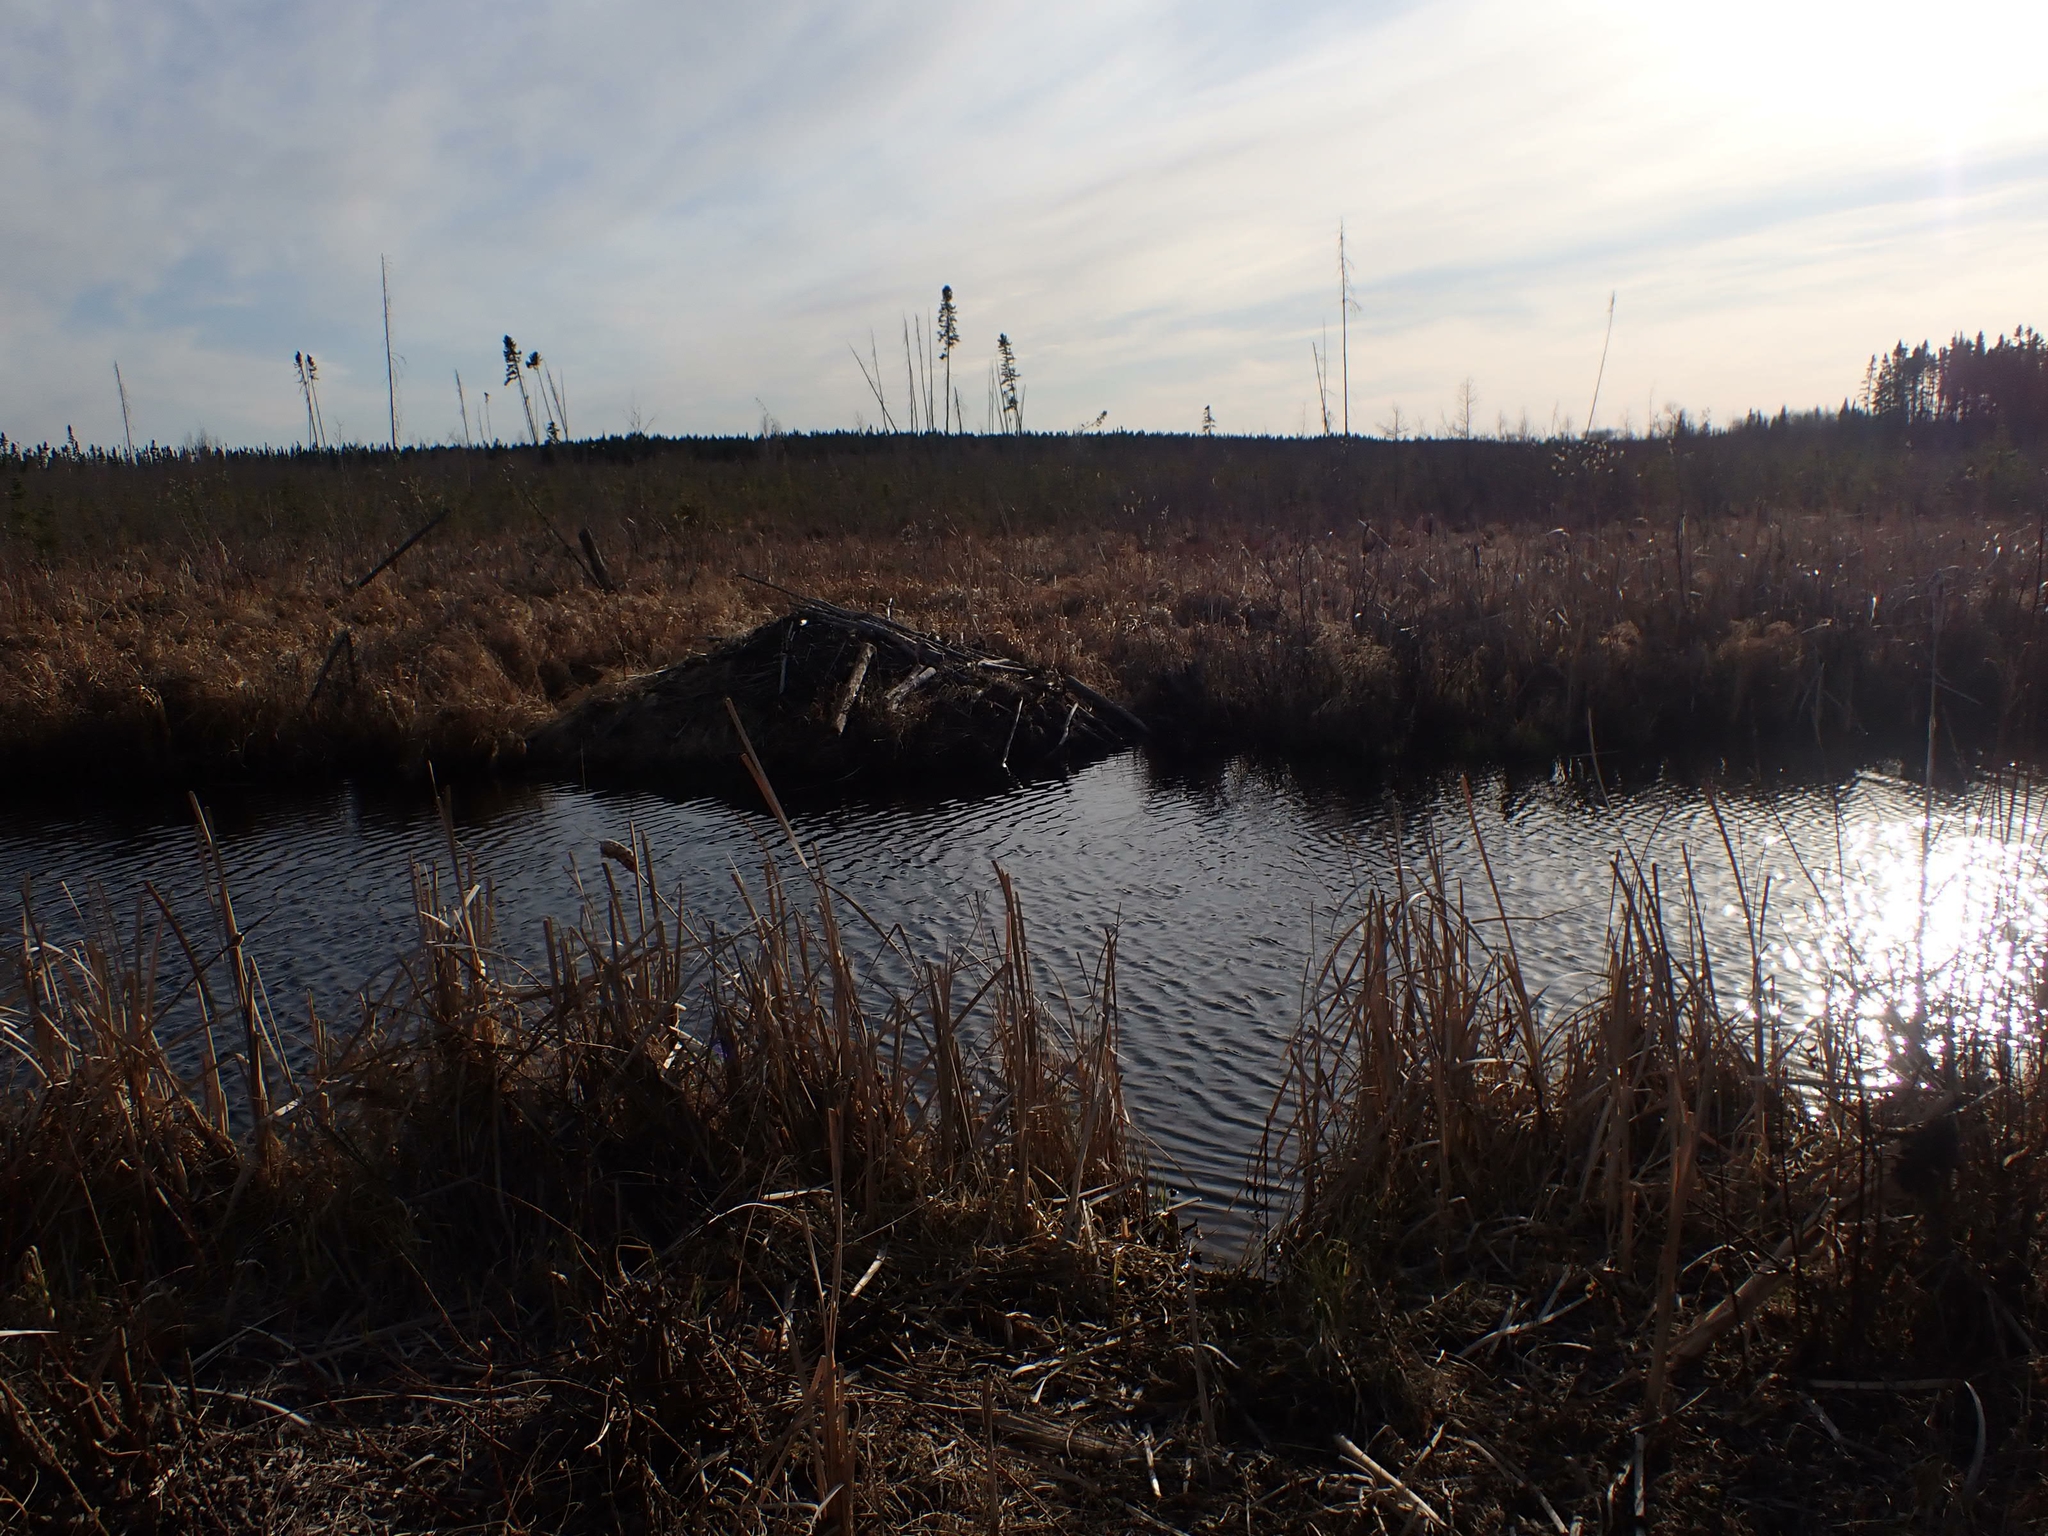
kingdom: Animalia
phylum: Chordata
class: Mammalia
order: Rodentia
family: Castoridae
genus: Castor
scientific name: Castor canadensis
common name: American beaver
